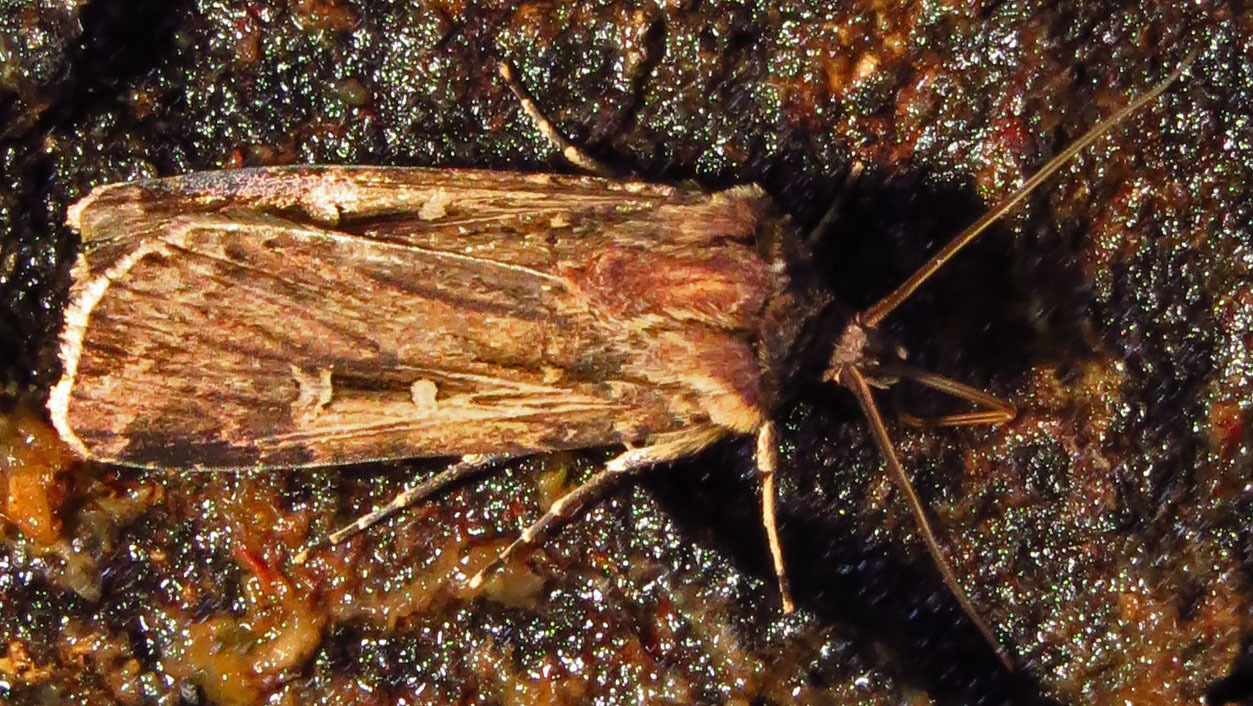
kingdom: Animalia
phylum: Arthropoda
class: Insecta
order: Lepidoptera
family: Noctuidae
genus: Feltia
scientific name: Feltia subterranea
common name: Granulate cutworm
